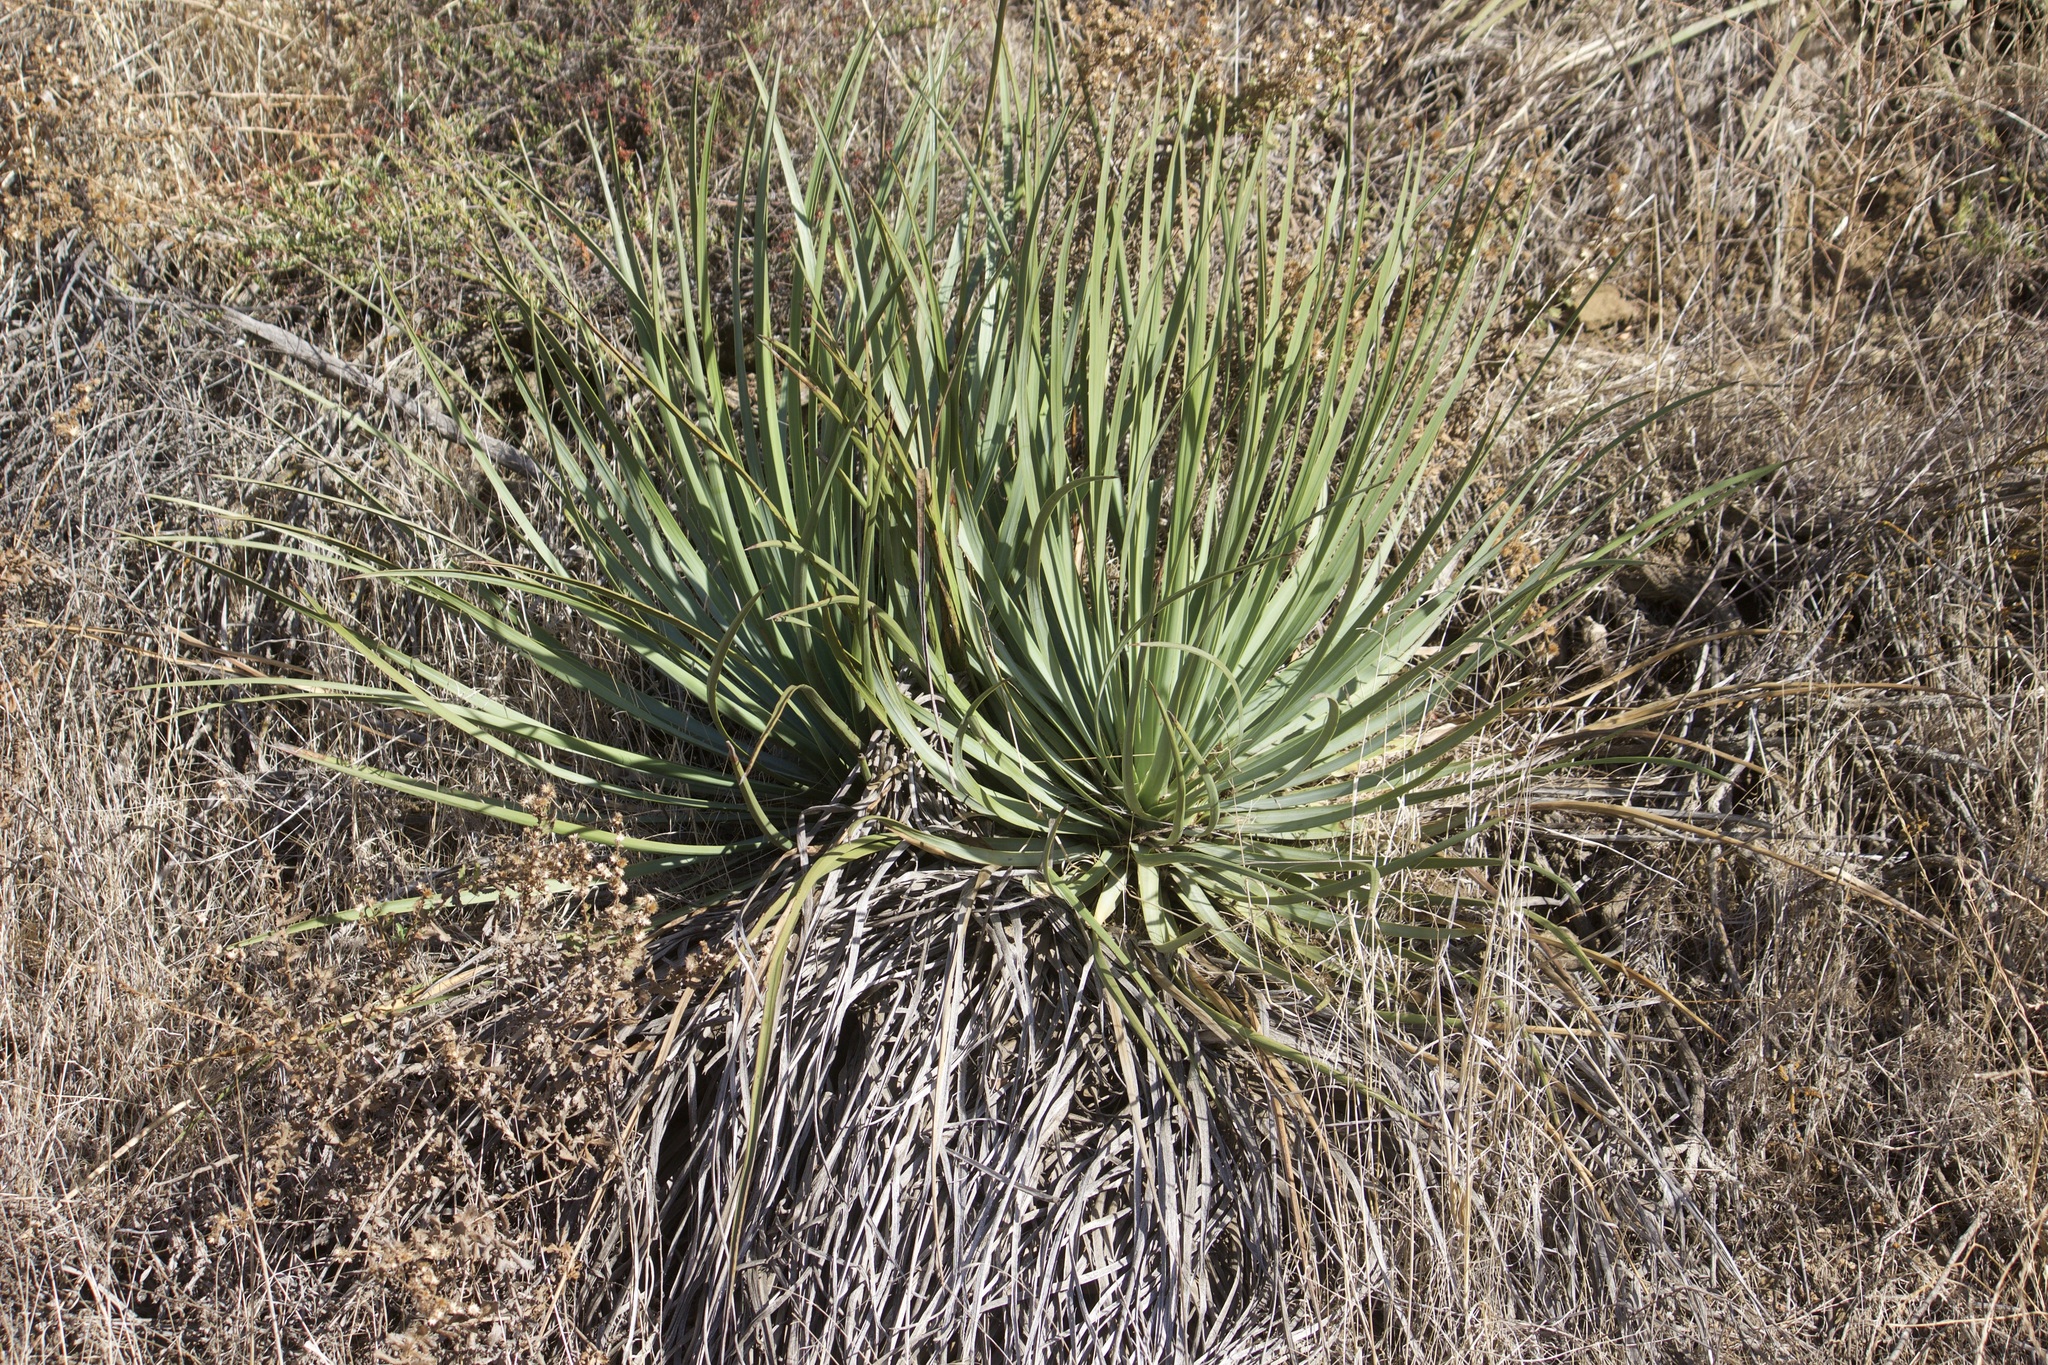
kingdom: Plantae
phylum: Tracheophyta
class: Liliopsida
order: Asparagales
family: Asparagaceae
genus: Hesperoyucca
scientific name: Hesperoyucca whipplei
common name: Our lord's-candle
